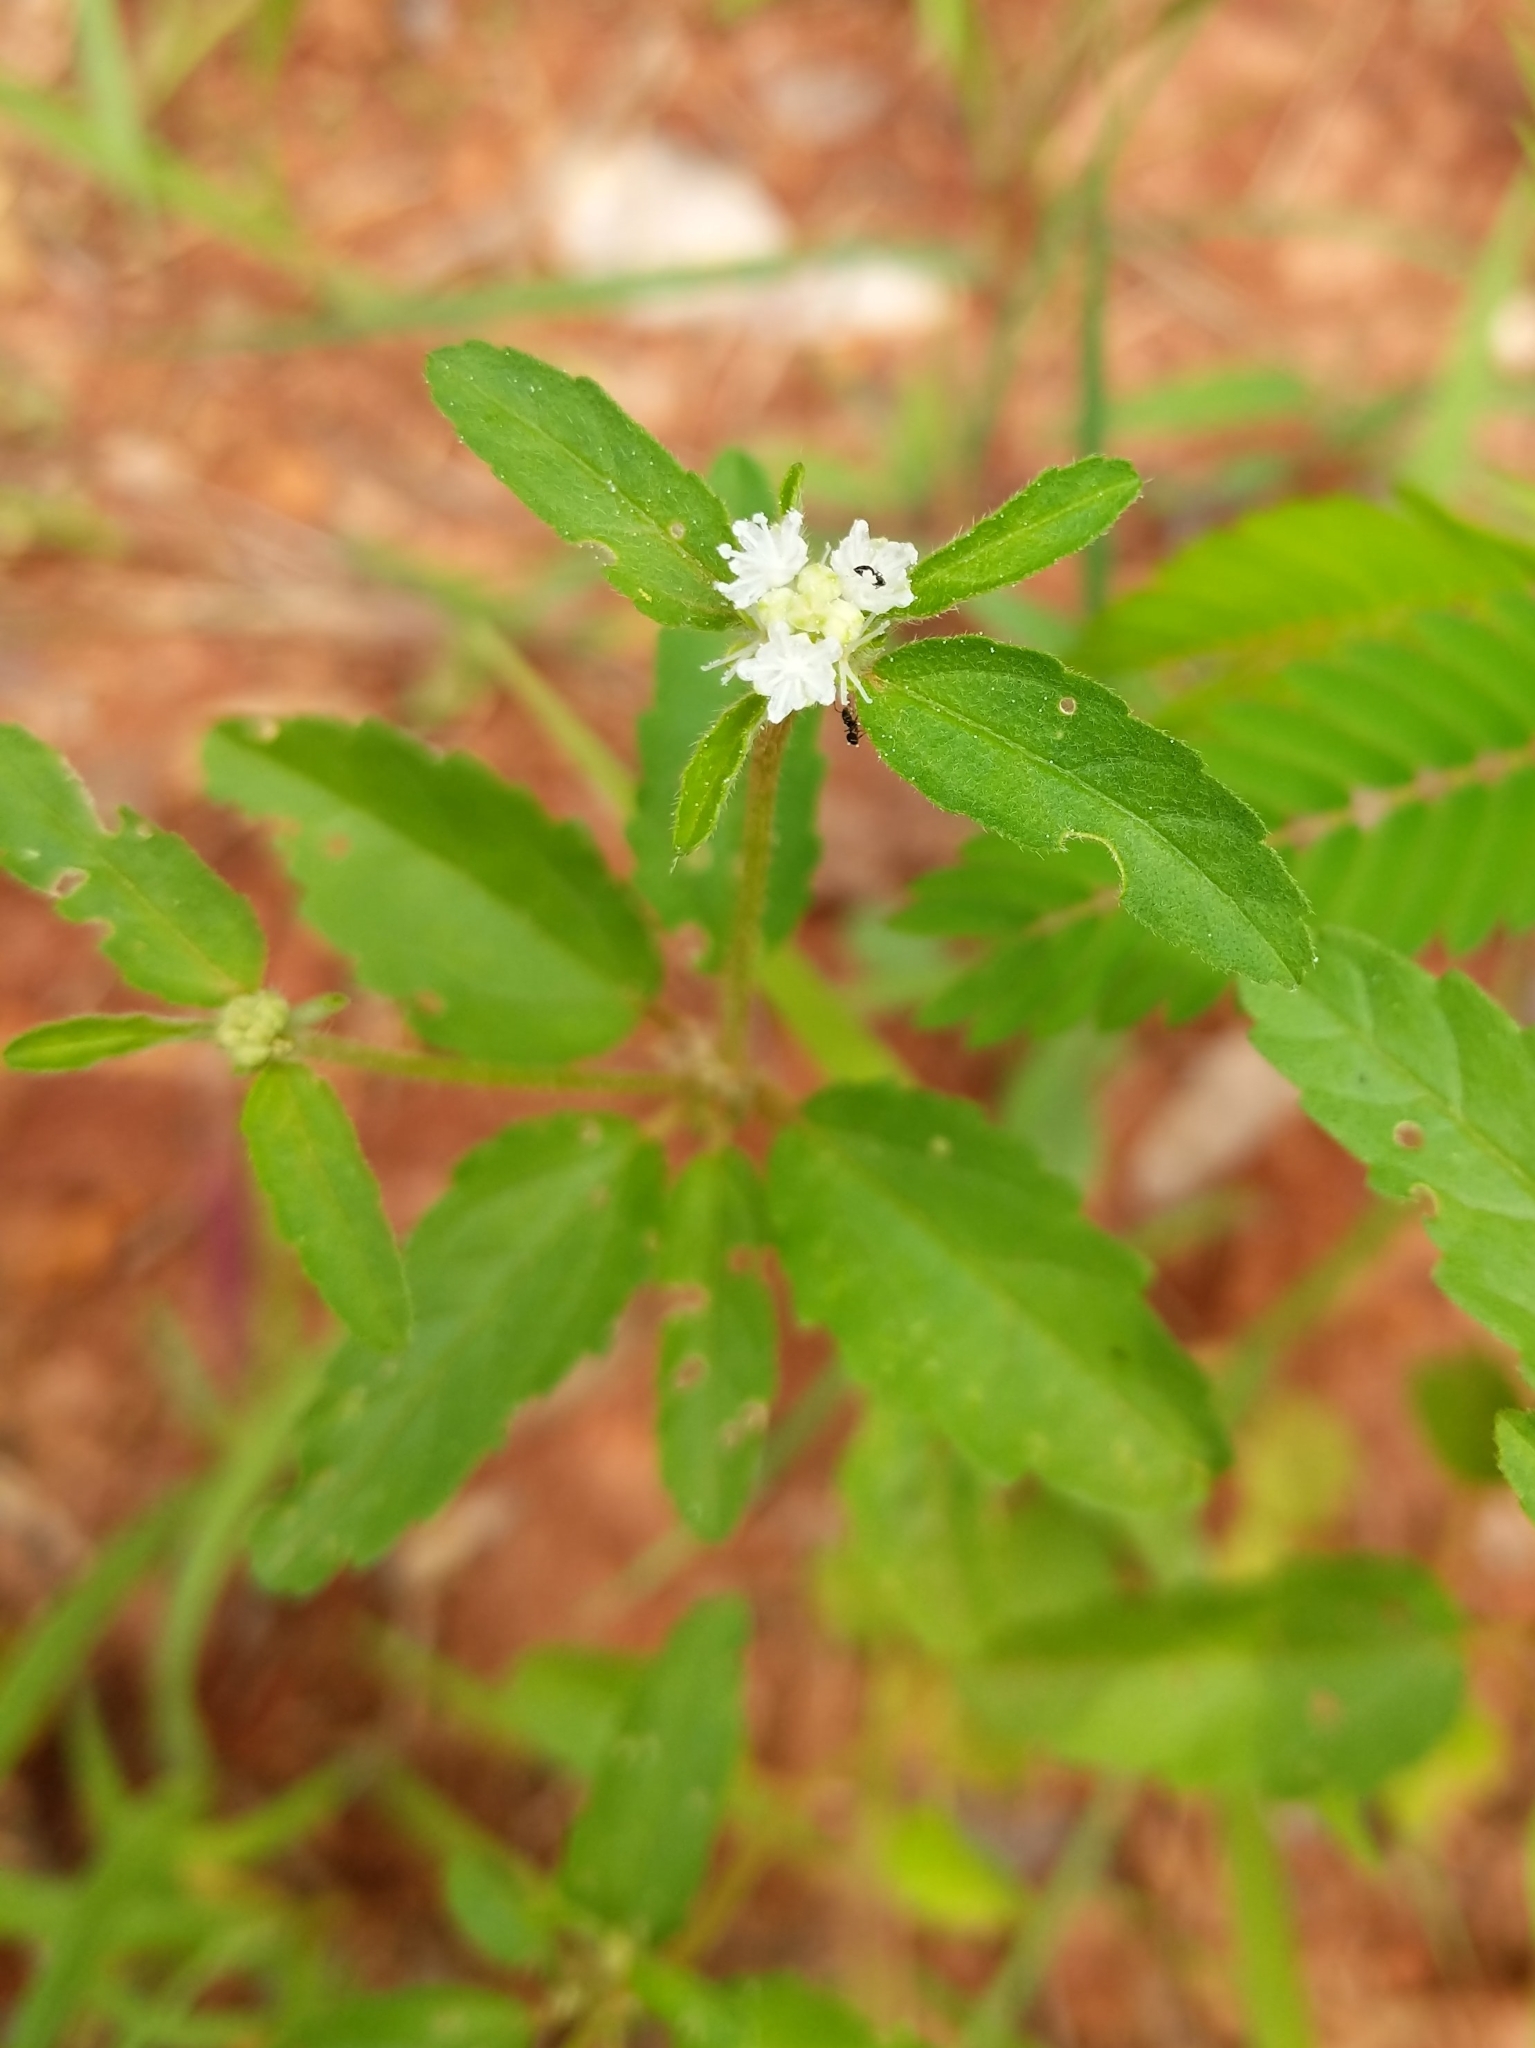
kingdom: Plantae
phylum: Tracheophyta
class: Magnoliopsida
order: Malpighiales
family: Euphorbiaceae
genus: Croton
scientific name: Croton glandulosus
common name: Tropic croton
